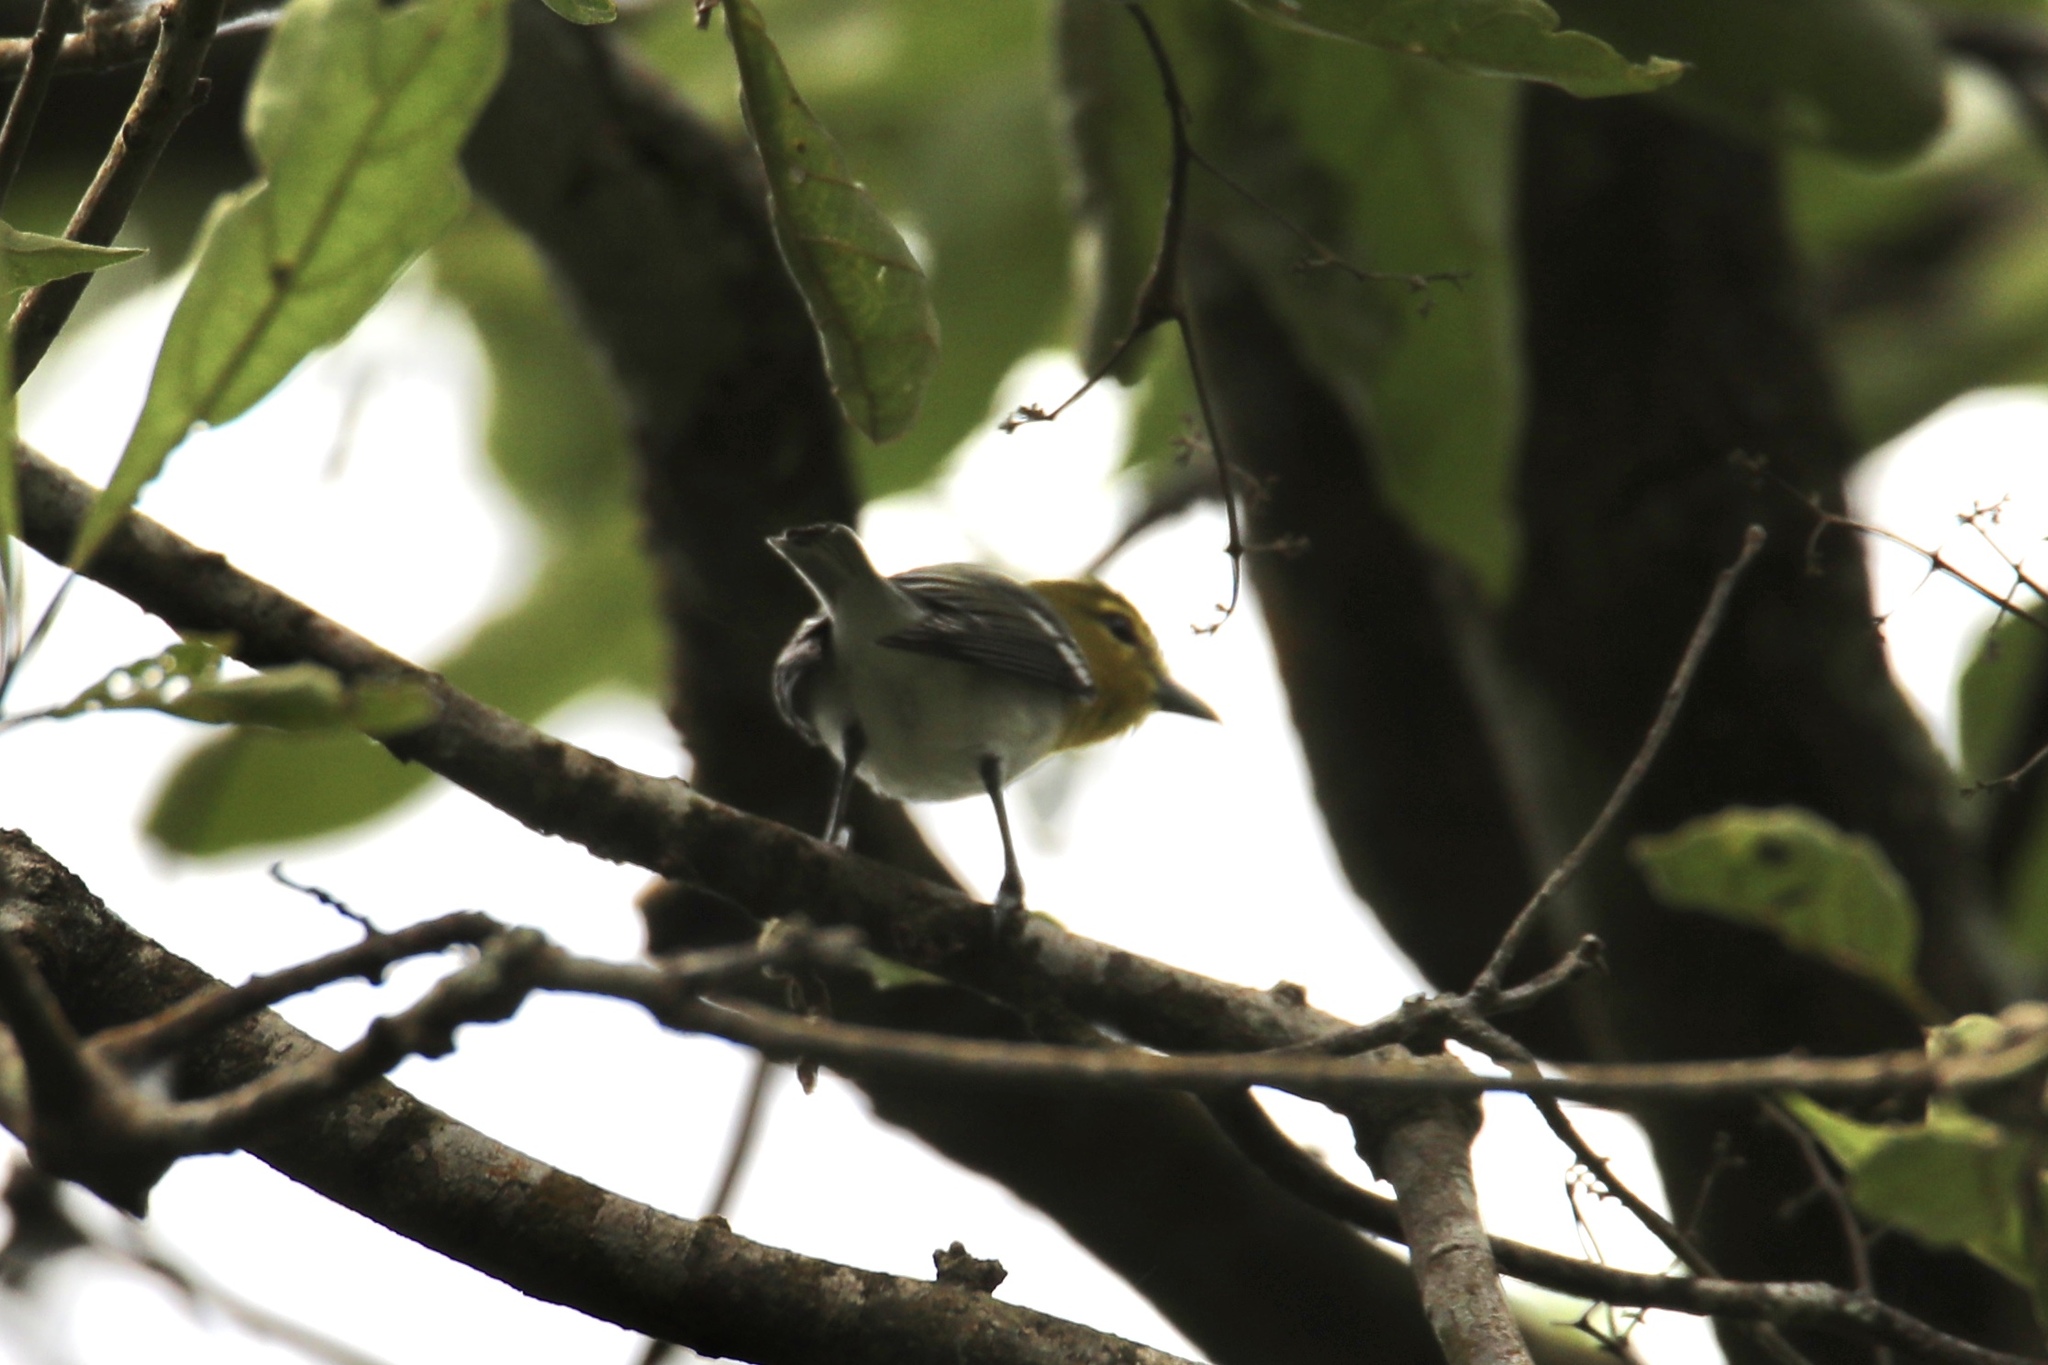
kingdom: Animalia
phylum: Chordata
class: Aves
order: Passeriformes
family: Vireonidae
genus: Vireo
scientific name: Vireo flavifrons
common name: Yellow-throated vireo
